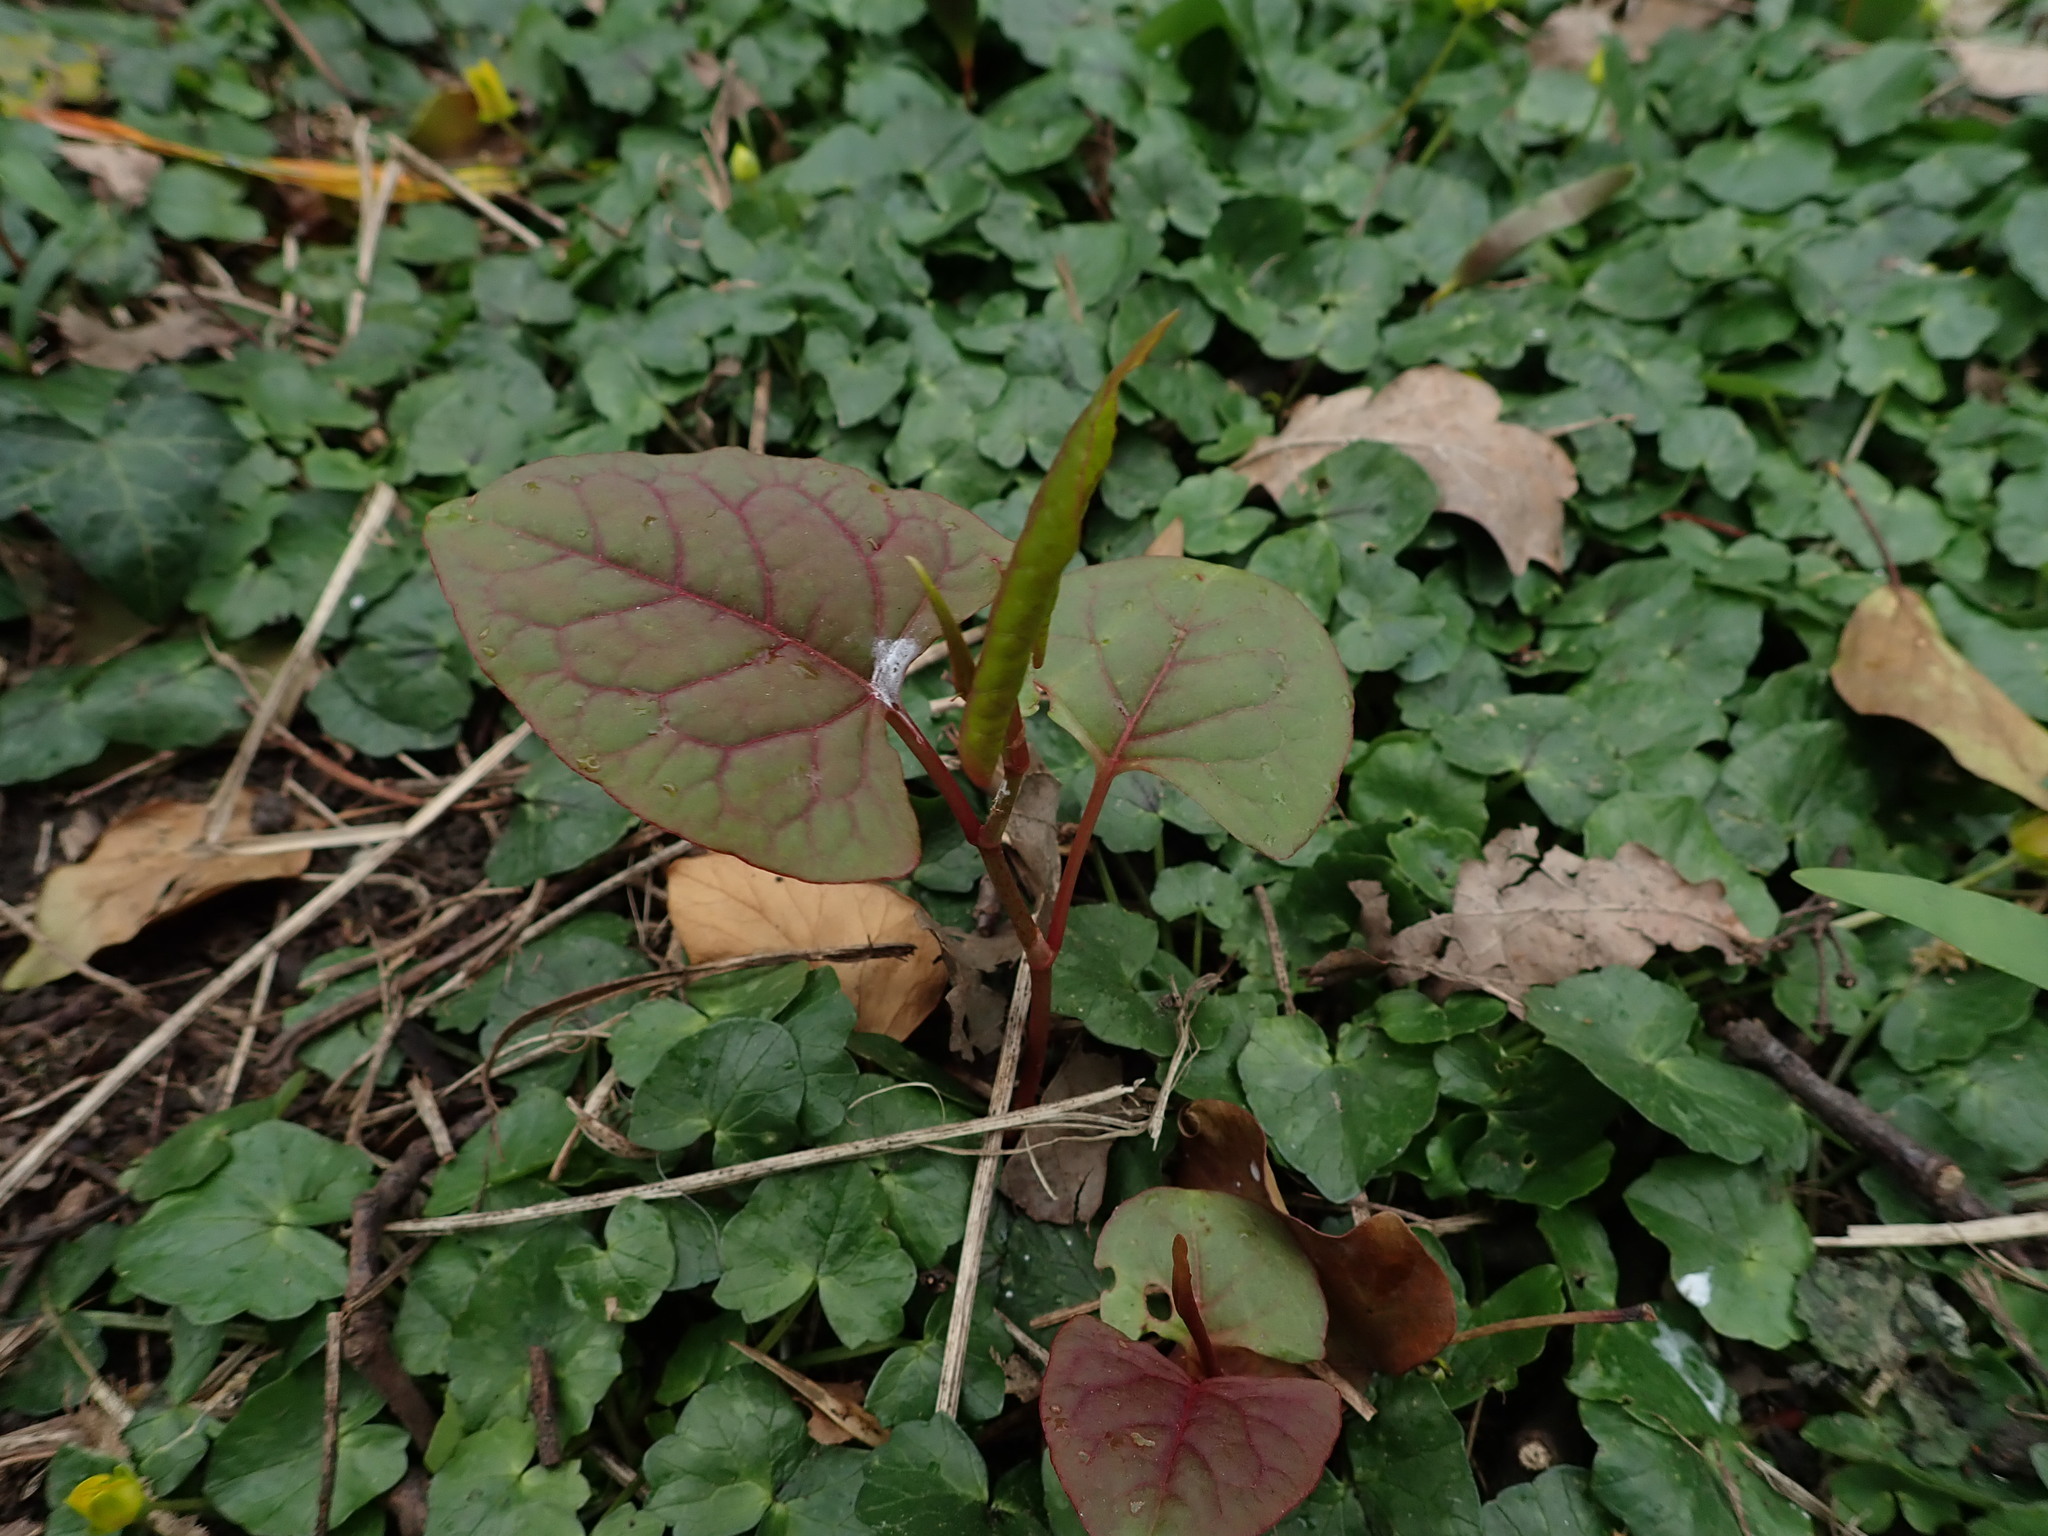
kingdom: Plantae
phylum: Tracheophyta
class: Magnoliopsida
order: Caryophyllales
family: Polygonaceae
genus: Reynoutria
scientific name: Reynoutria japonica
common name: Japanese knotweed
